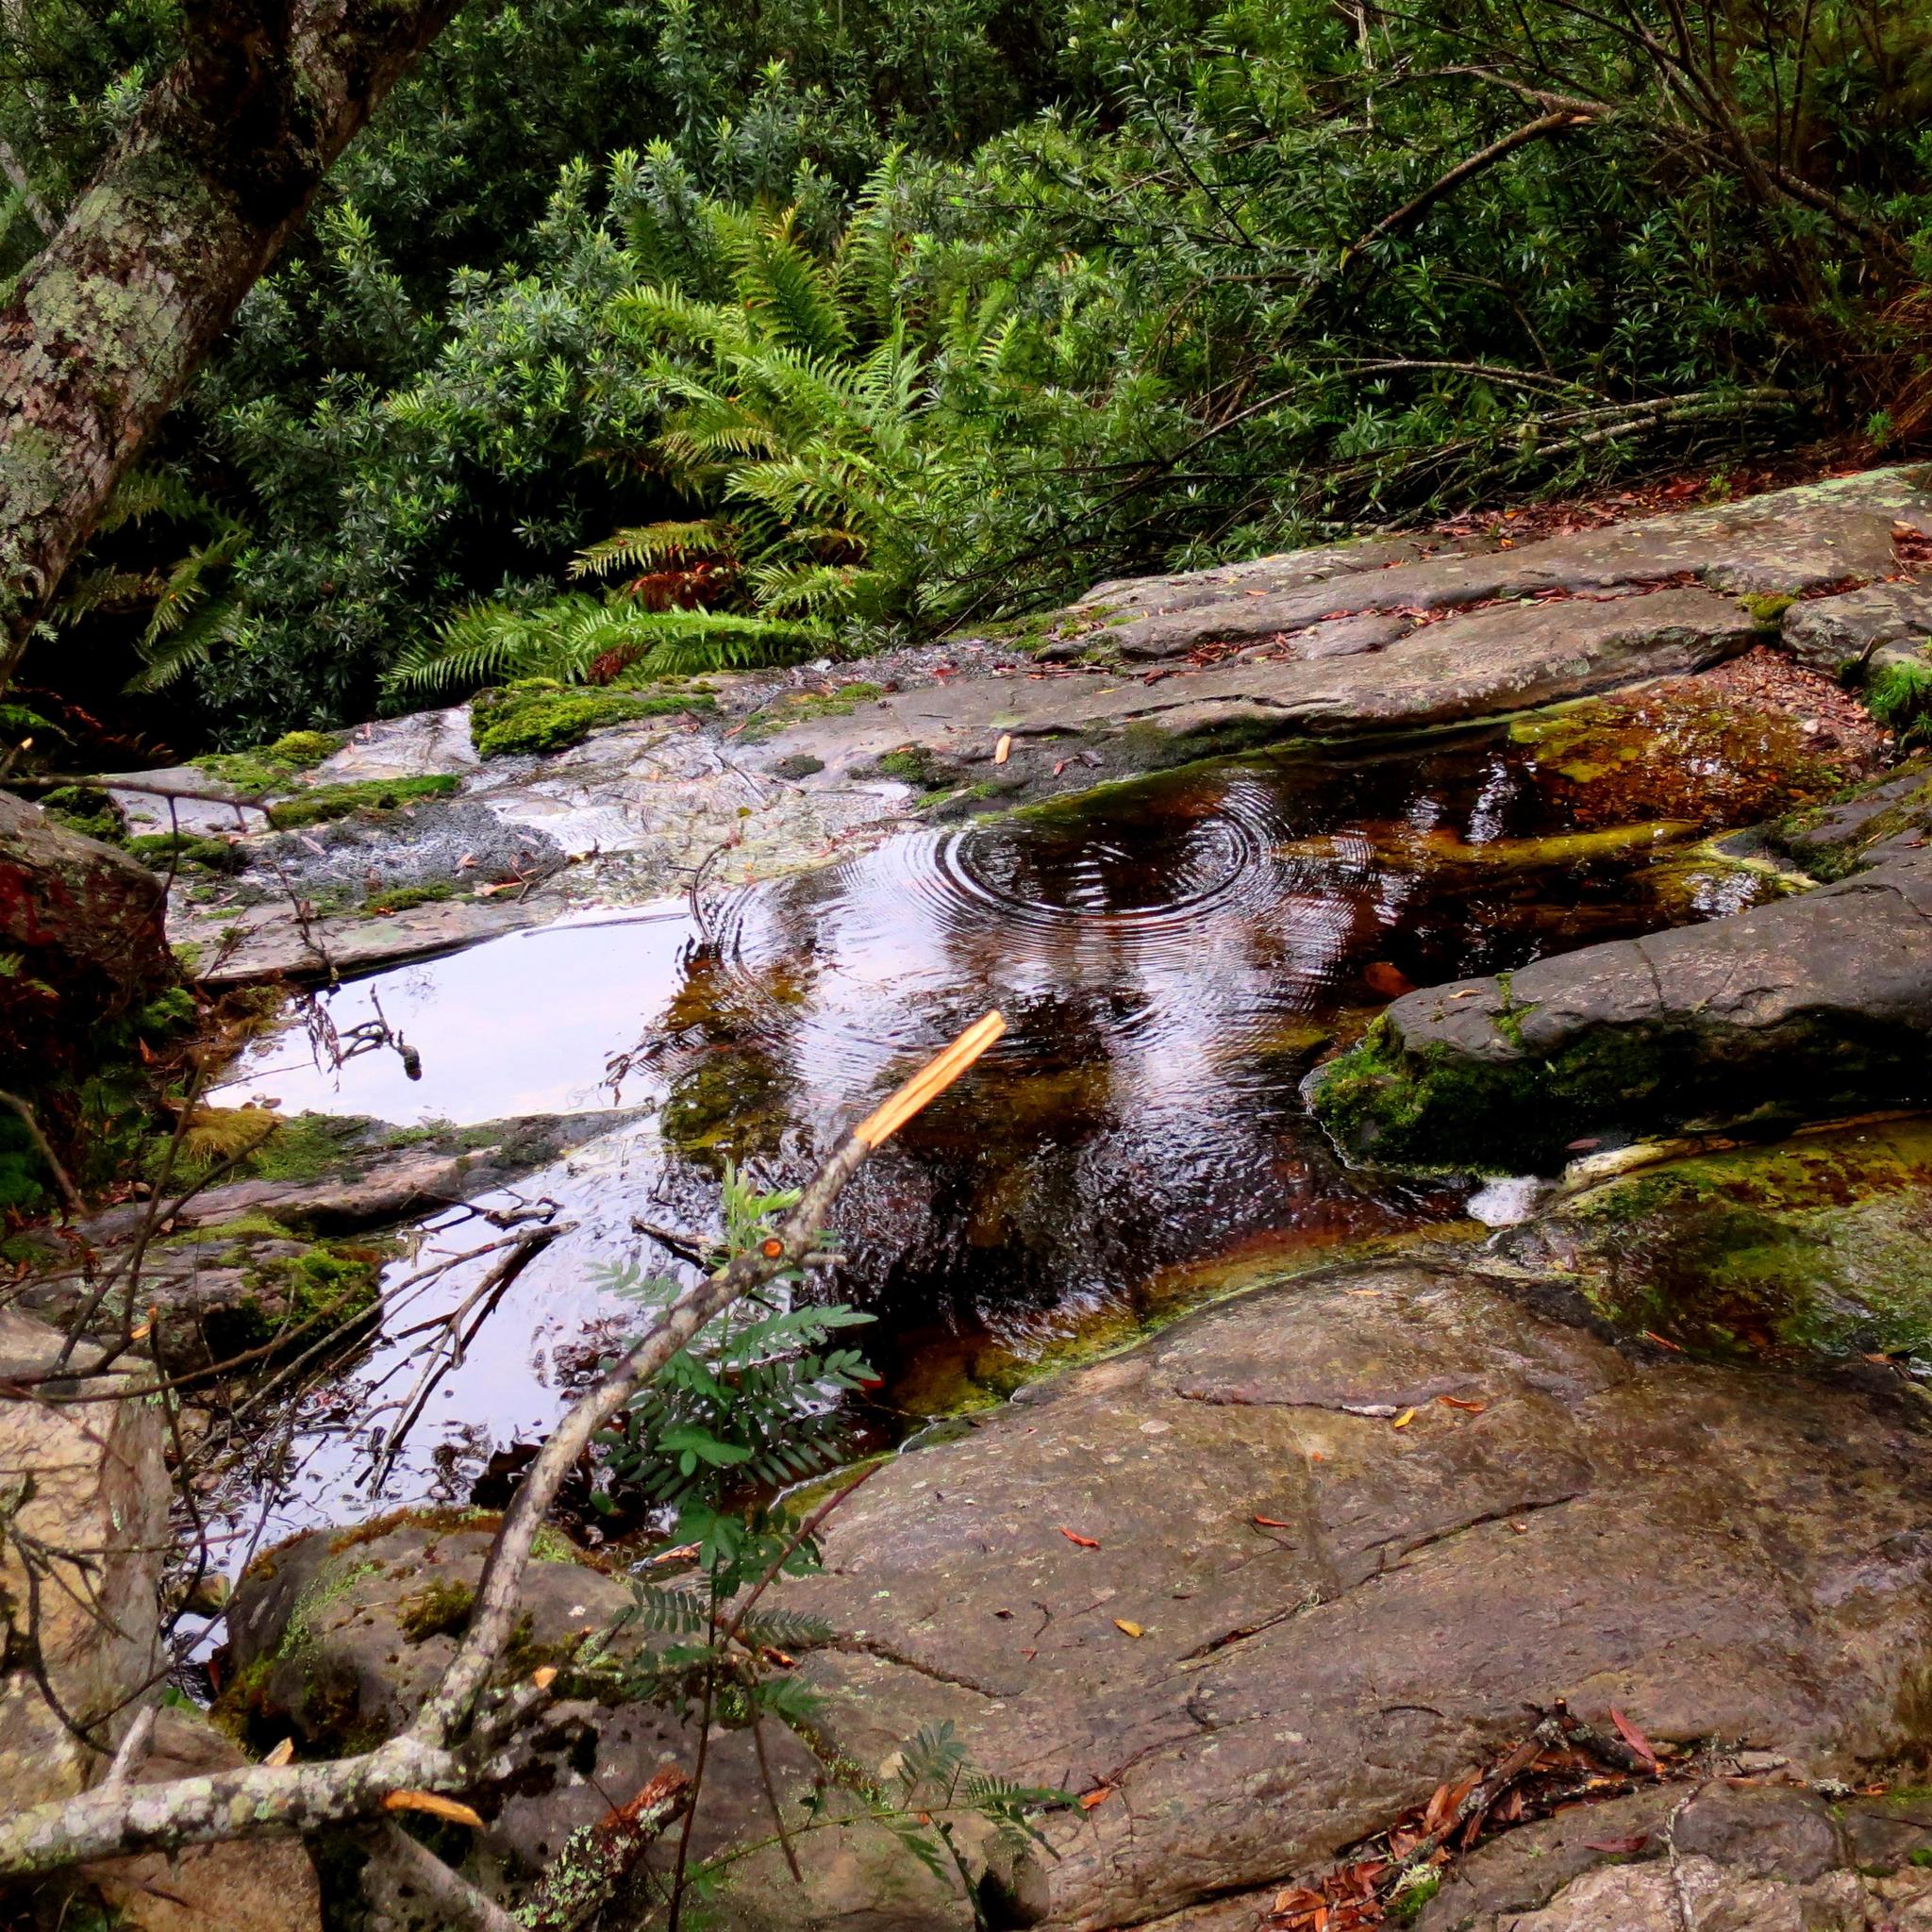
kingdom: Plantae
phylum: Tracheophyta
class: Magnoliopsida
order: Asterales
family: Asteraceae
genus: Brachylaena
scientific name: Brachylaena neriifolia
